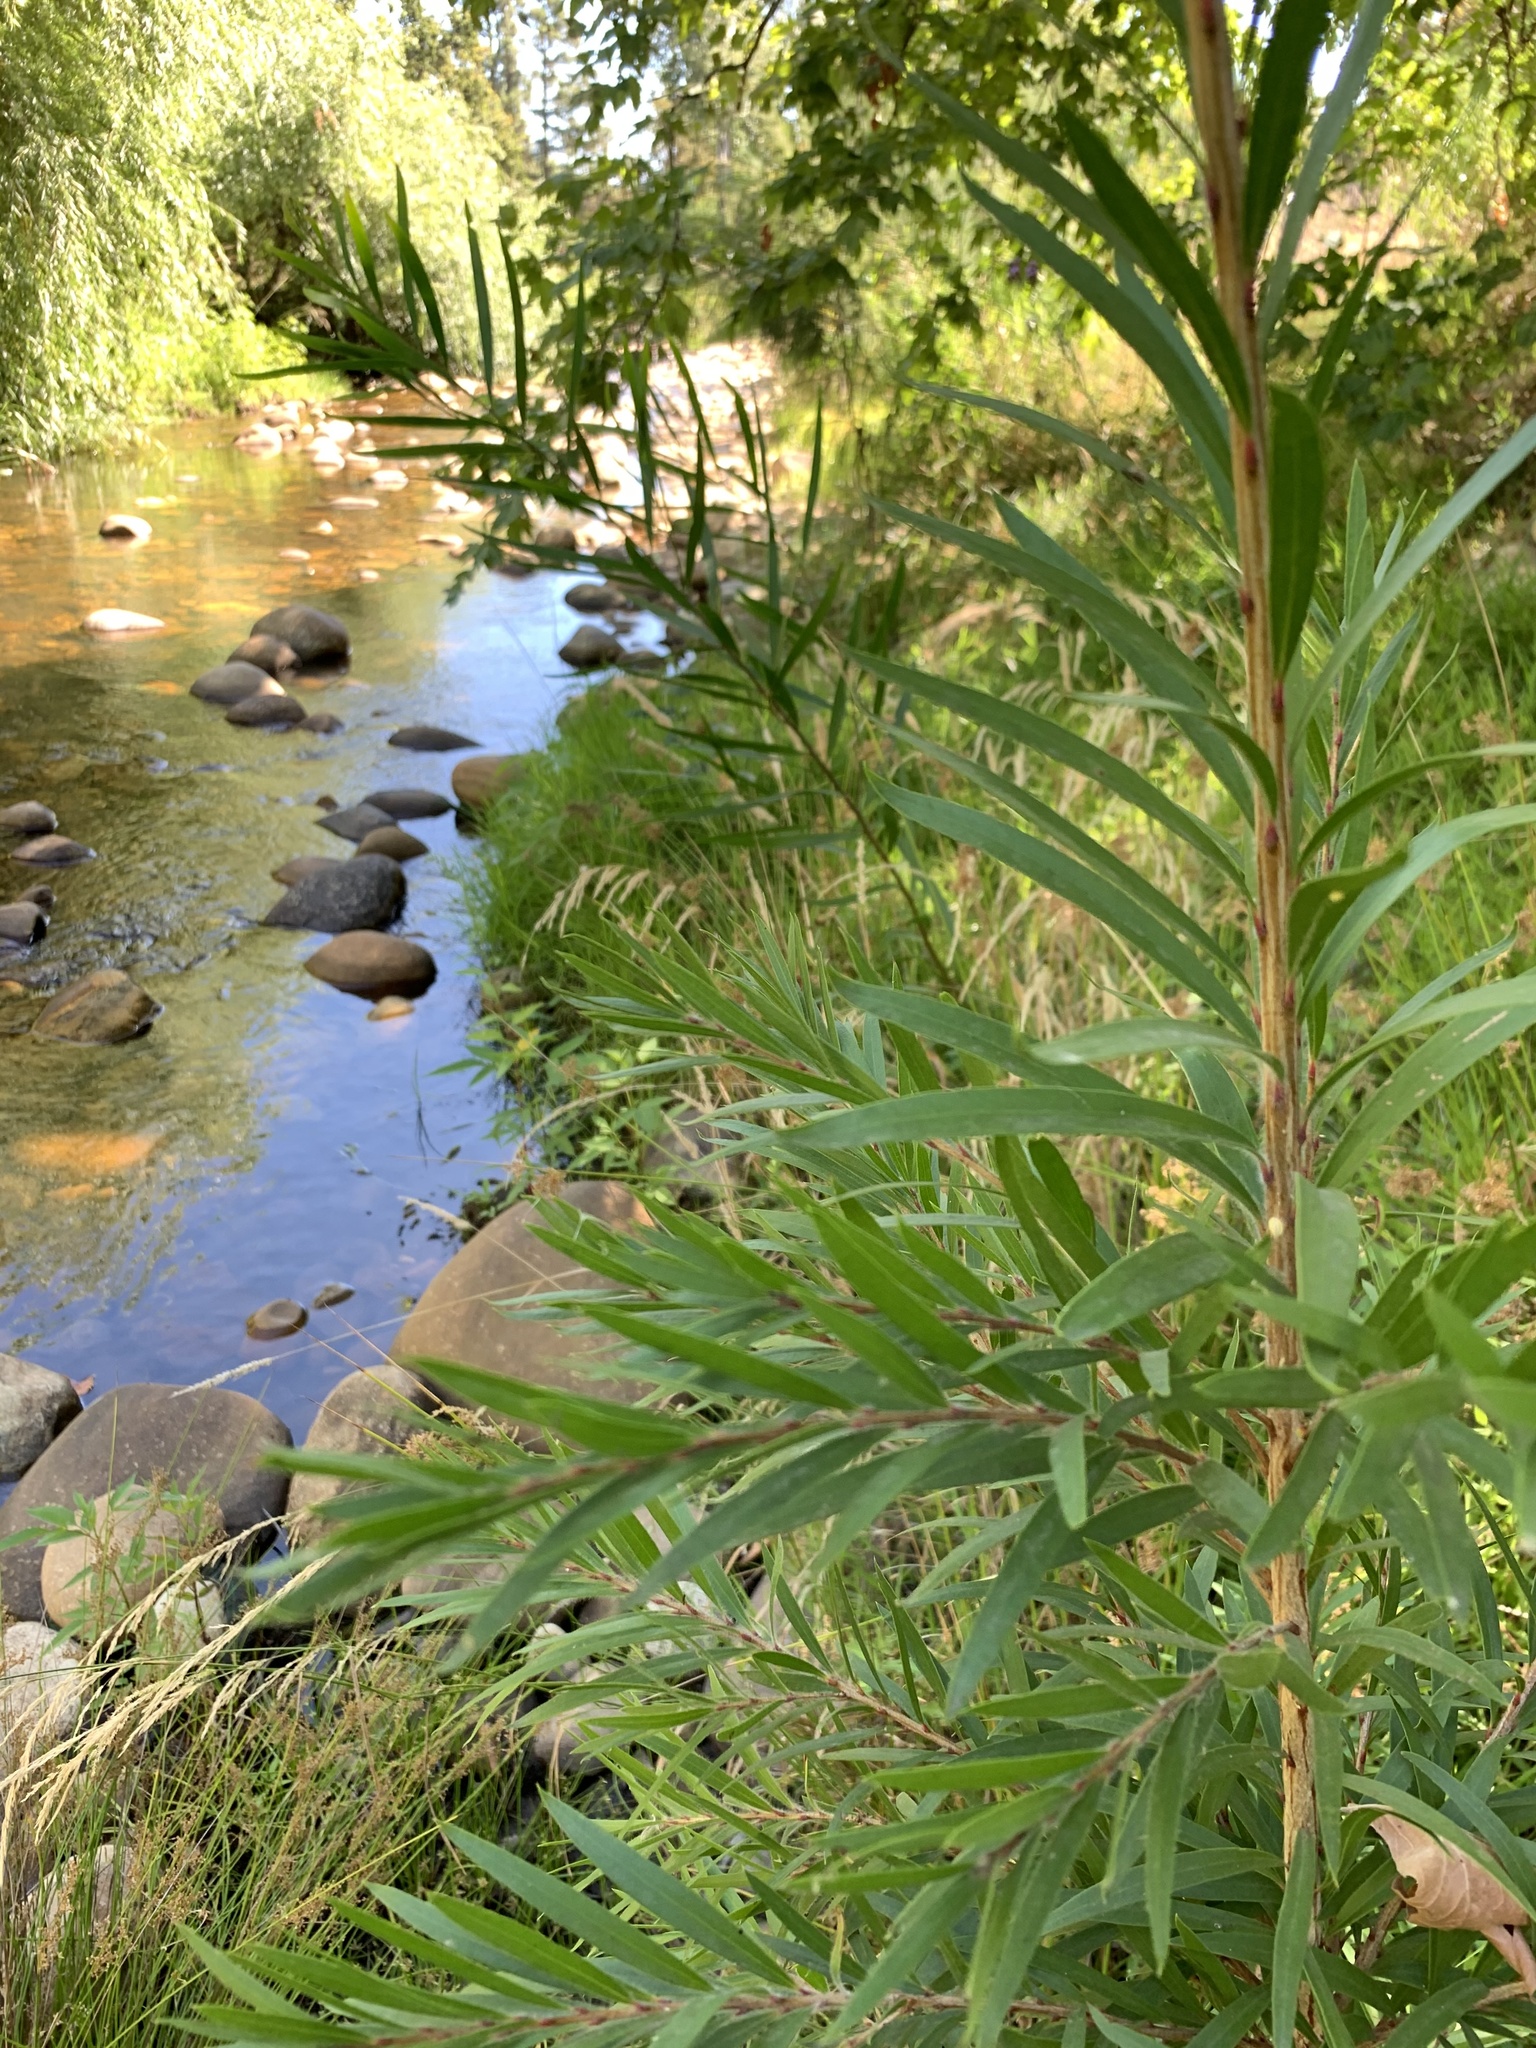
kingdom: Plantae
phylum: Tracheophyta
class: Magnoliopsida
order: Myrtales
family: Myrtaceae
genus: Callistemon
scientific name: Callistemon viminalis
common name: Drooping bottlebrush
